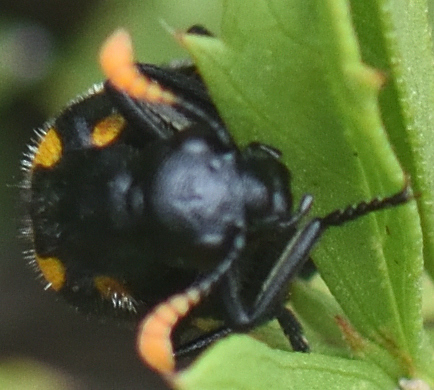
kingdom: Animalia
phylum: Arthropoda
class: Insecta
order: Coleoptera
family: Meloidae
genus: Meloe
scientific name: Meloe lunata
